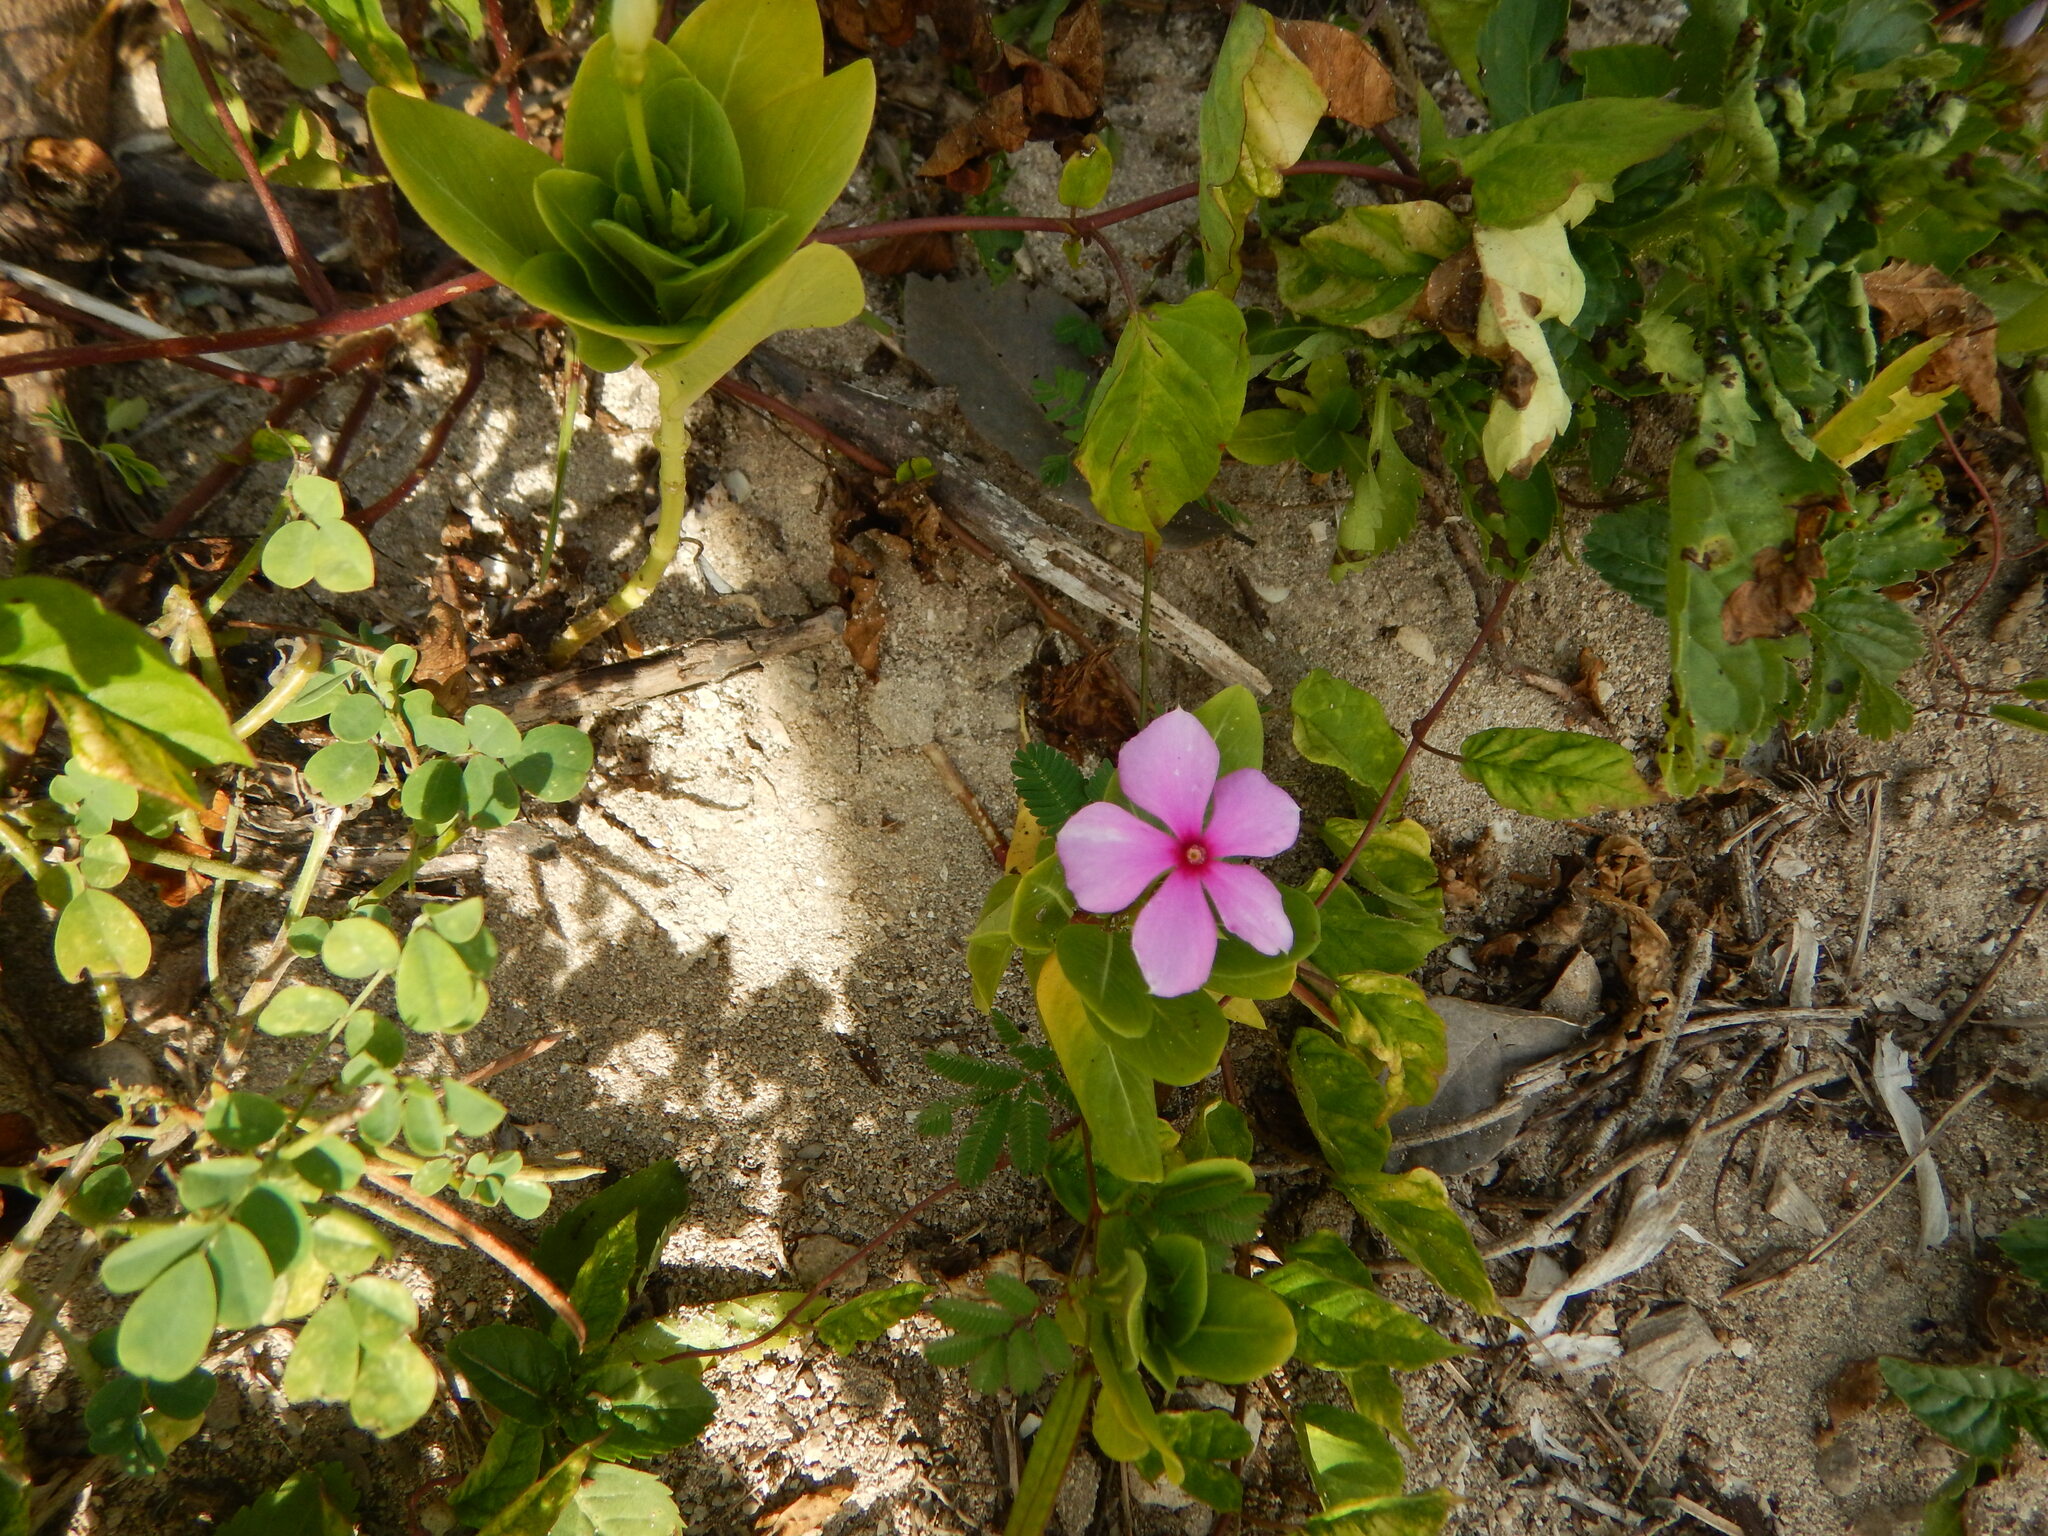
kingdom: Plantae
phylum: Tracheophyta
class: Magnoliopsida
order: Gentianales
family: Apocynaceae
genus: Catharanthus
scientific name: Catharanthus roseus
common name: Madagascar periwinkle
